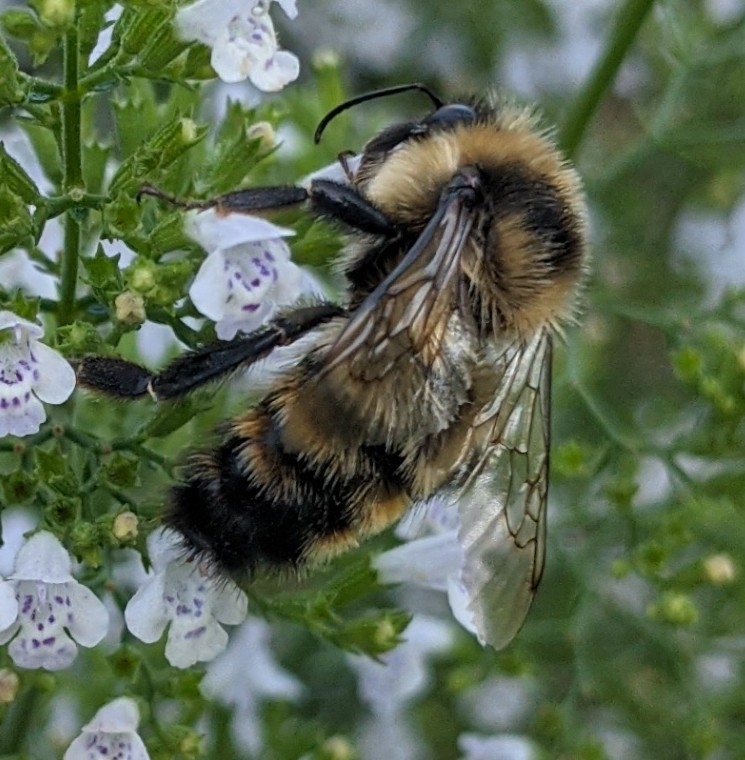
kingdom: Animalia
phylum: Arthropoda
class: Insecta
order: Hymenoptera
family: Apidae
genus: Bombus
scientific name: Bombus rufocinctus
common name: Red-belted bumble bee
